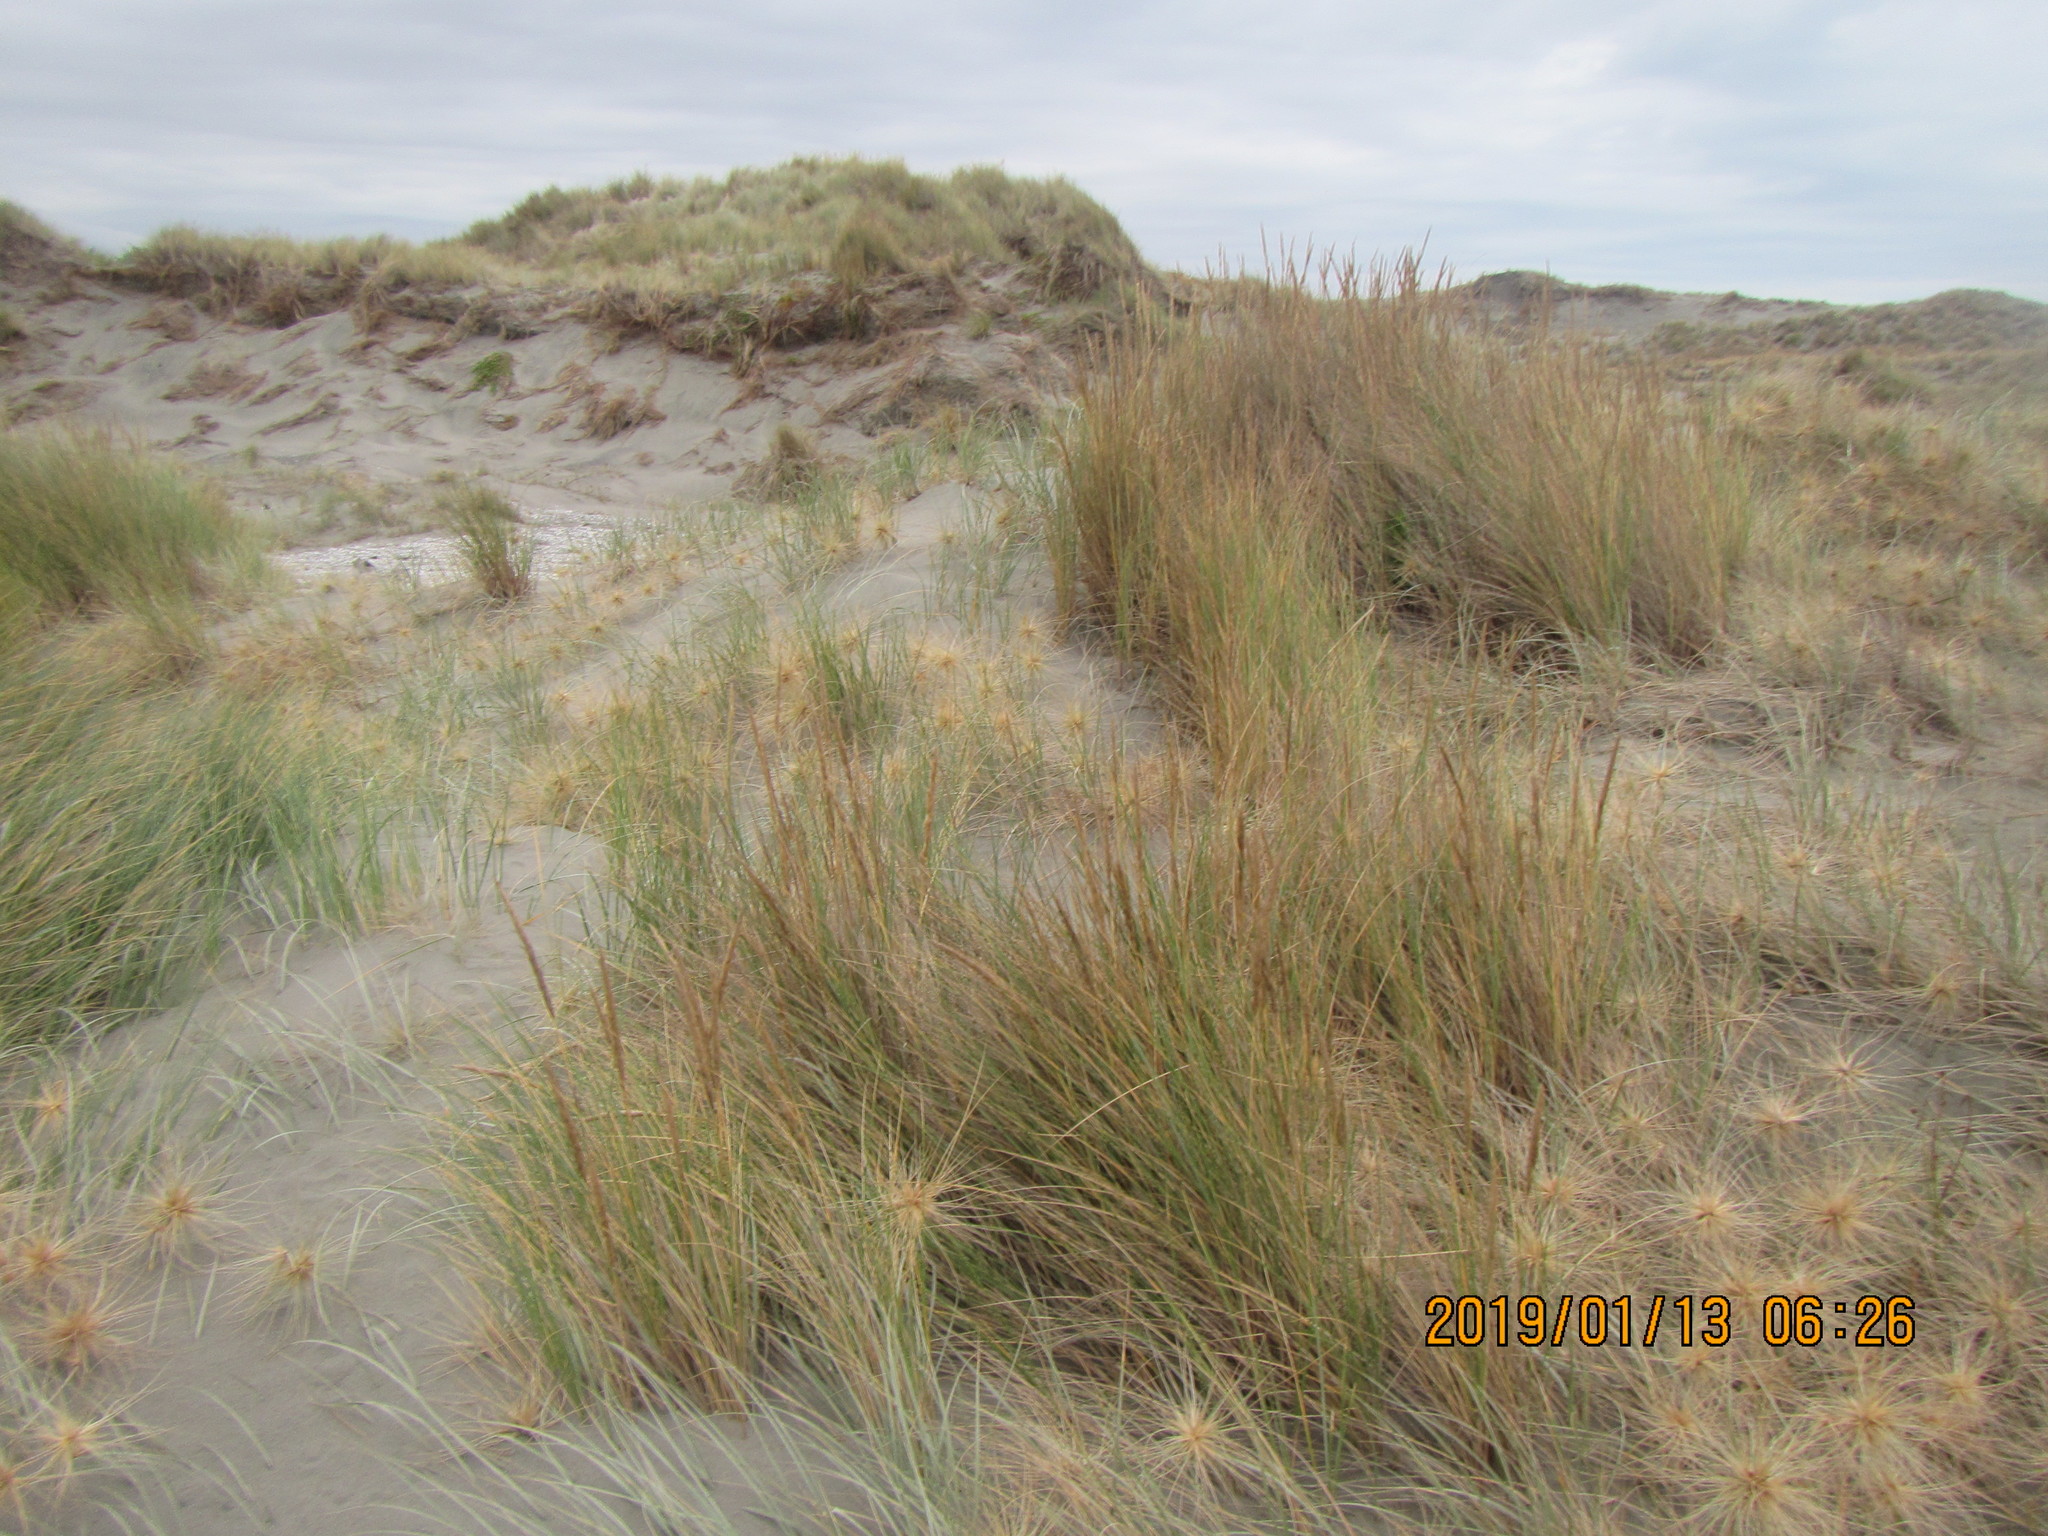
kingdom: Plantae
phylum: Tracheophyta
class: Liliopsida
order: Poales
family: Poaceae
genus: Calamagrostis
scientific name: Calamagrostis arenaria
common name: European beachgrass
